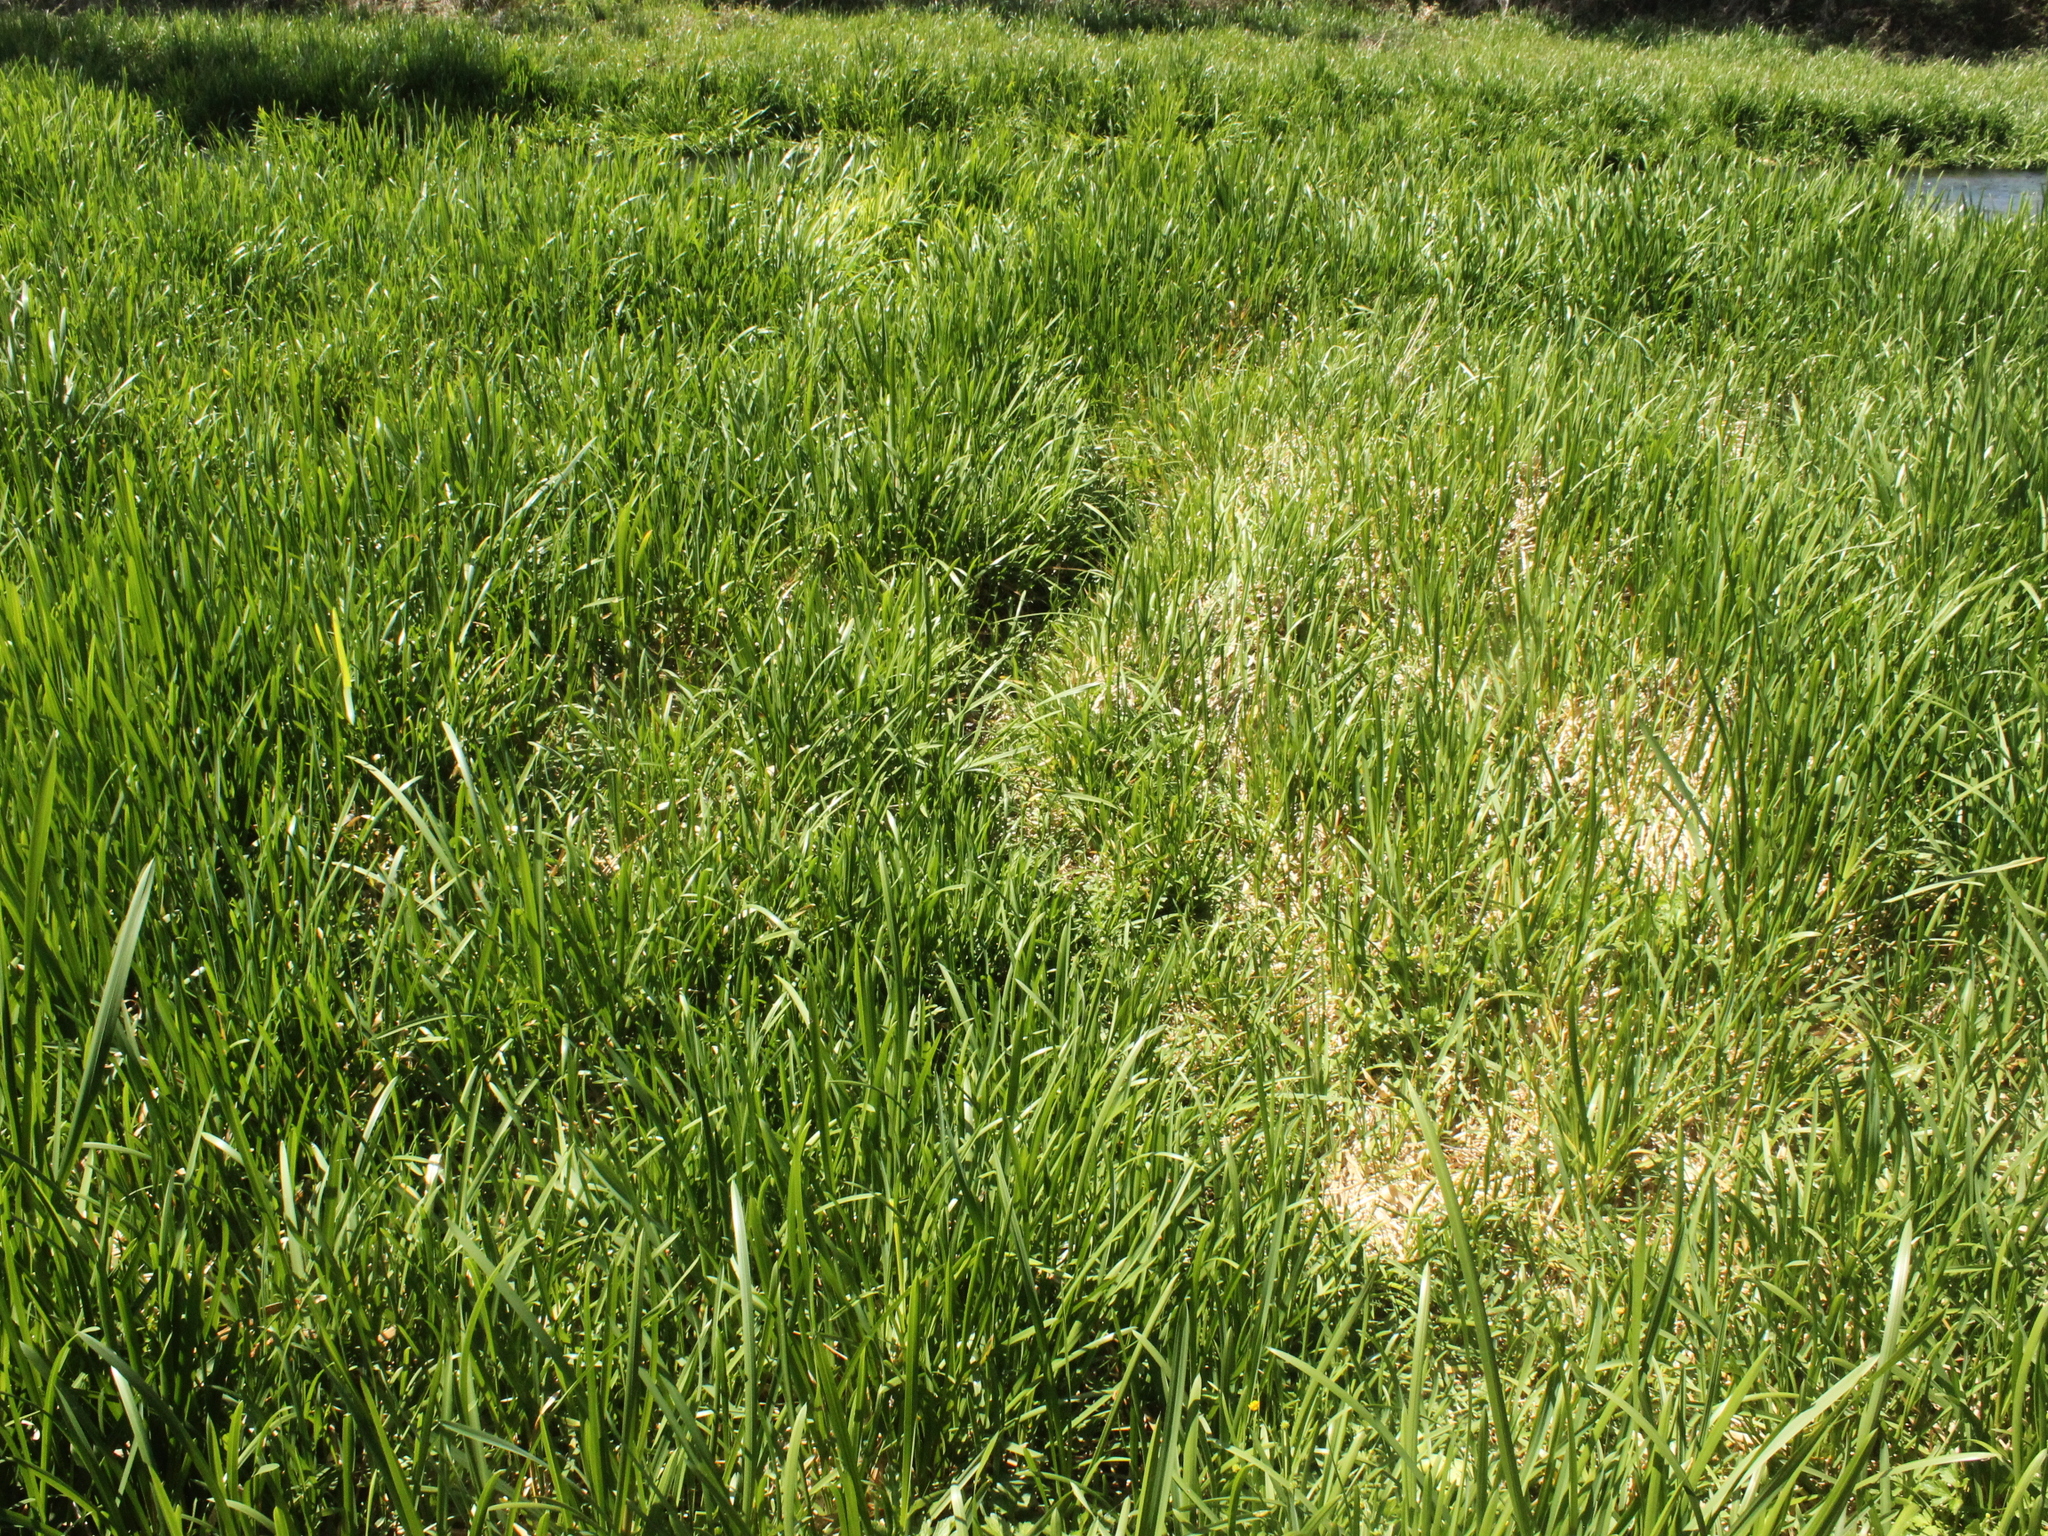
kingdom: Plantae
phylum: Tracheophyta
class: Liliopsida
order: Poales
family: Poaceae
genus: Glyceria
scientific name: Glyceria maxima
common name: Reed mannagrass
